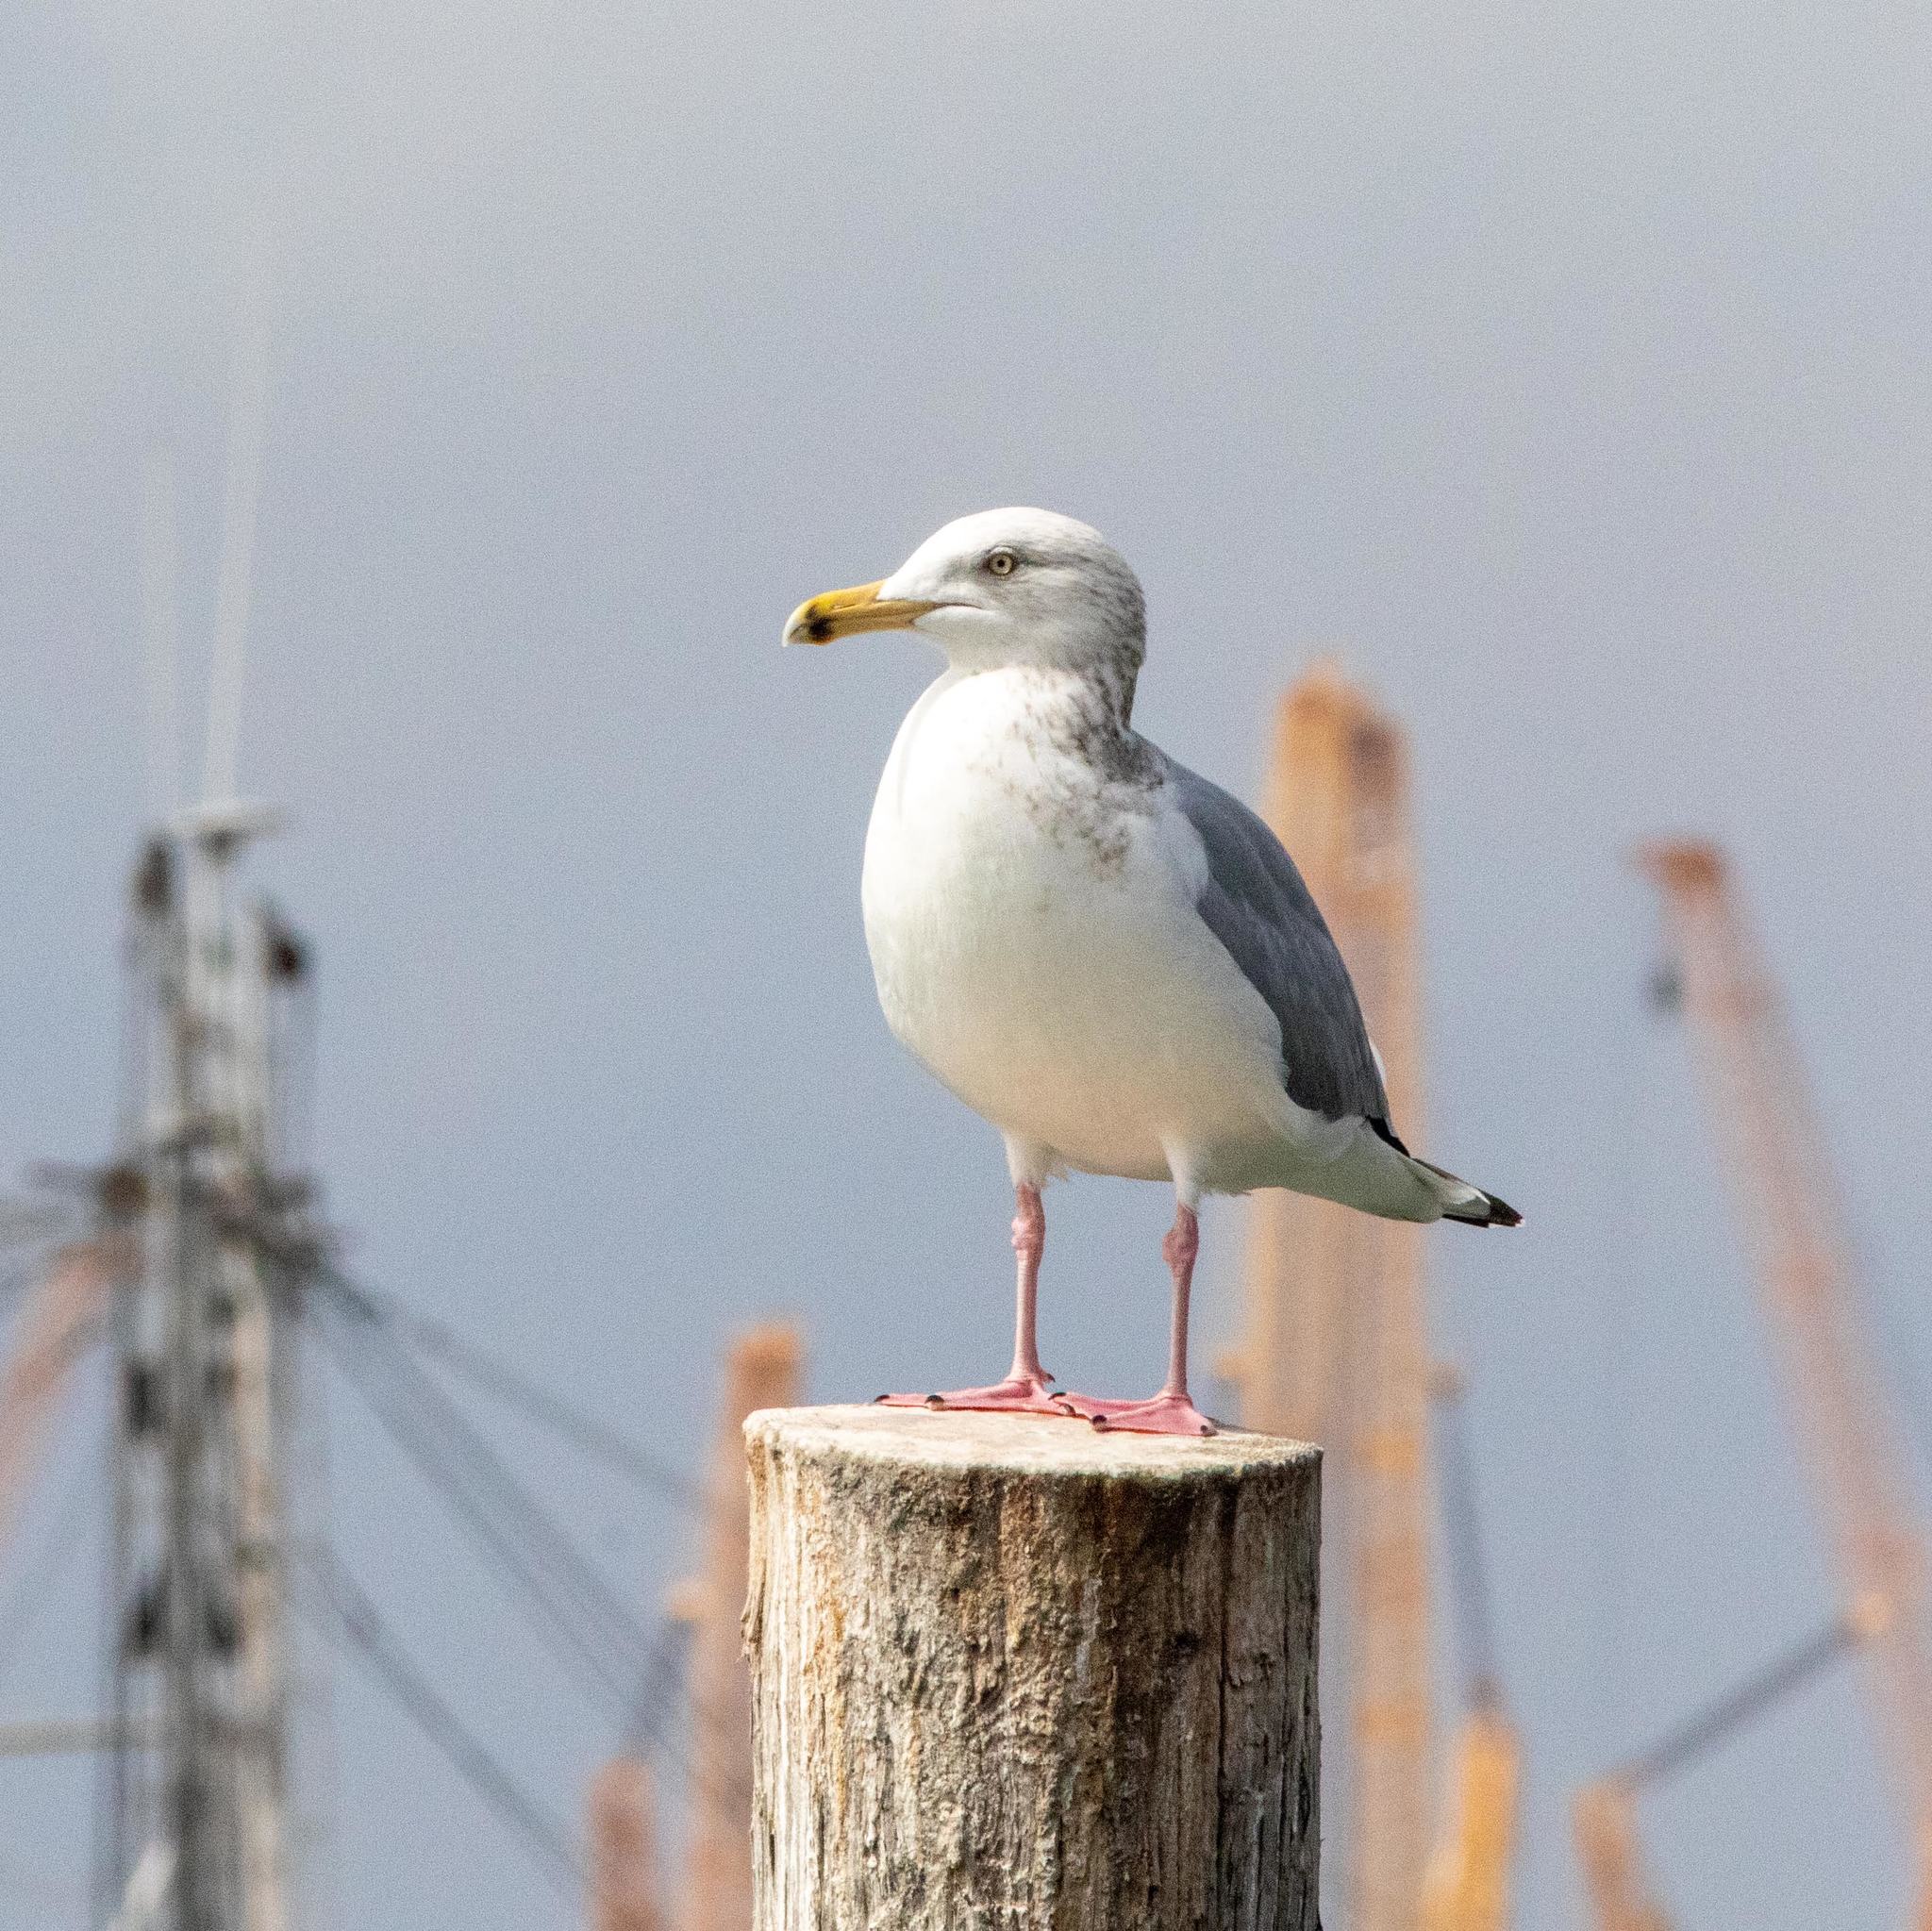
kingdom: Animalia
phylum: Chordata
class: Aves
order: Charadriiformes
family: Laridae
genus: Larus
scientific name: Larus argentatus
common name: Herring gull
